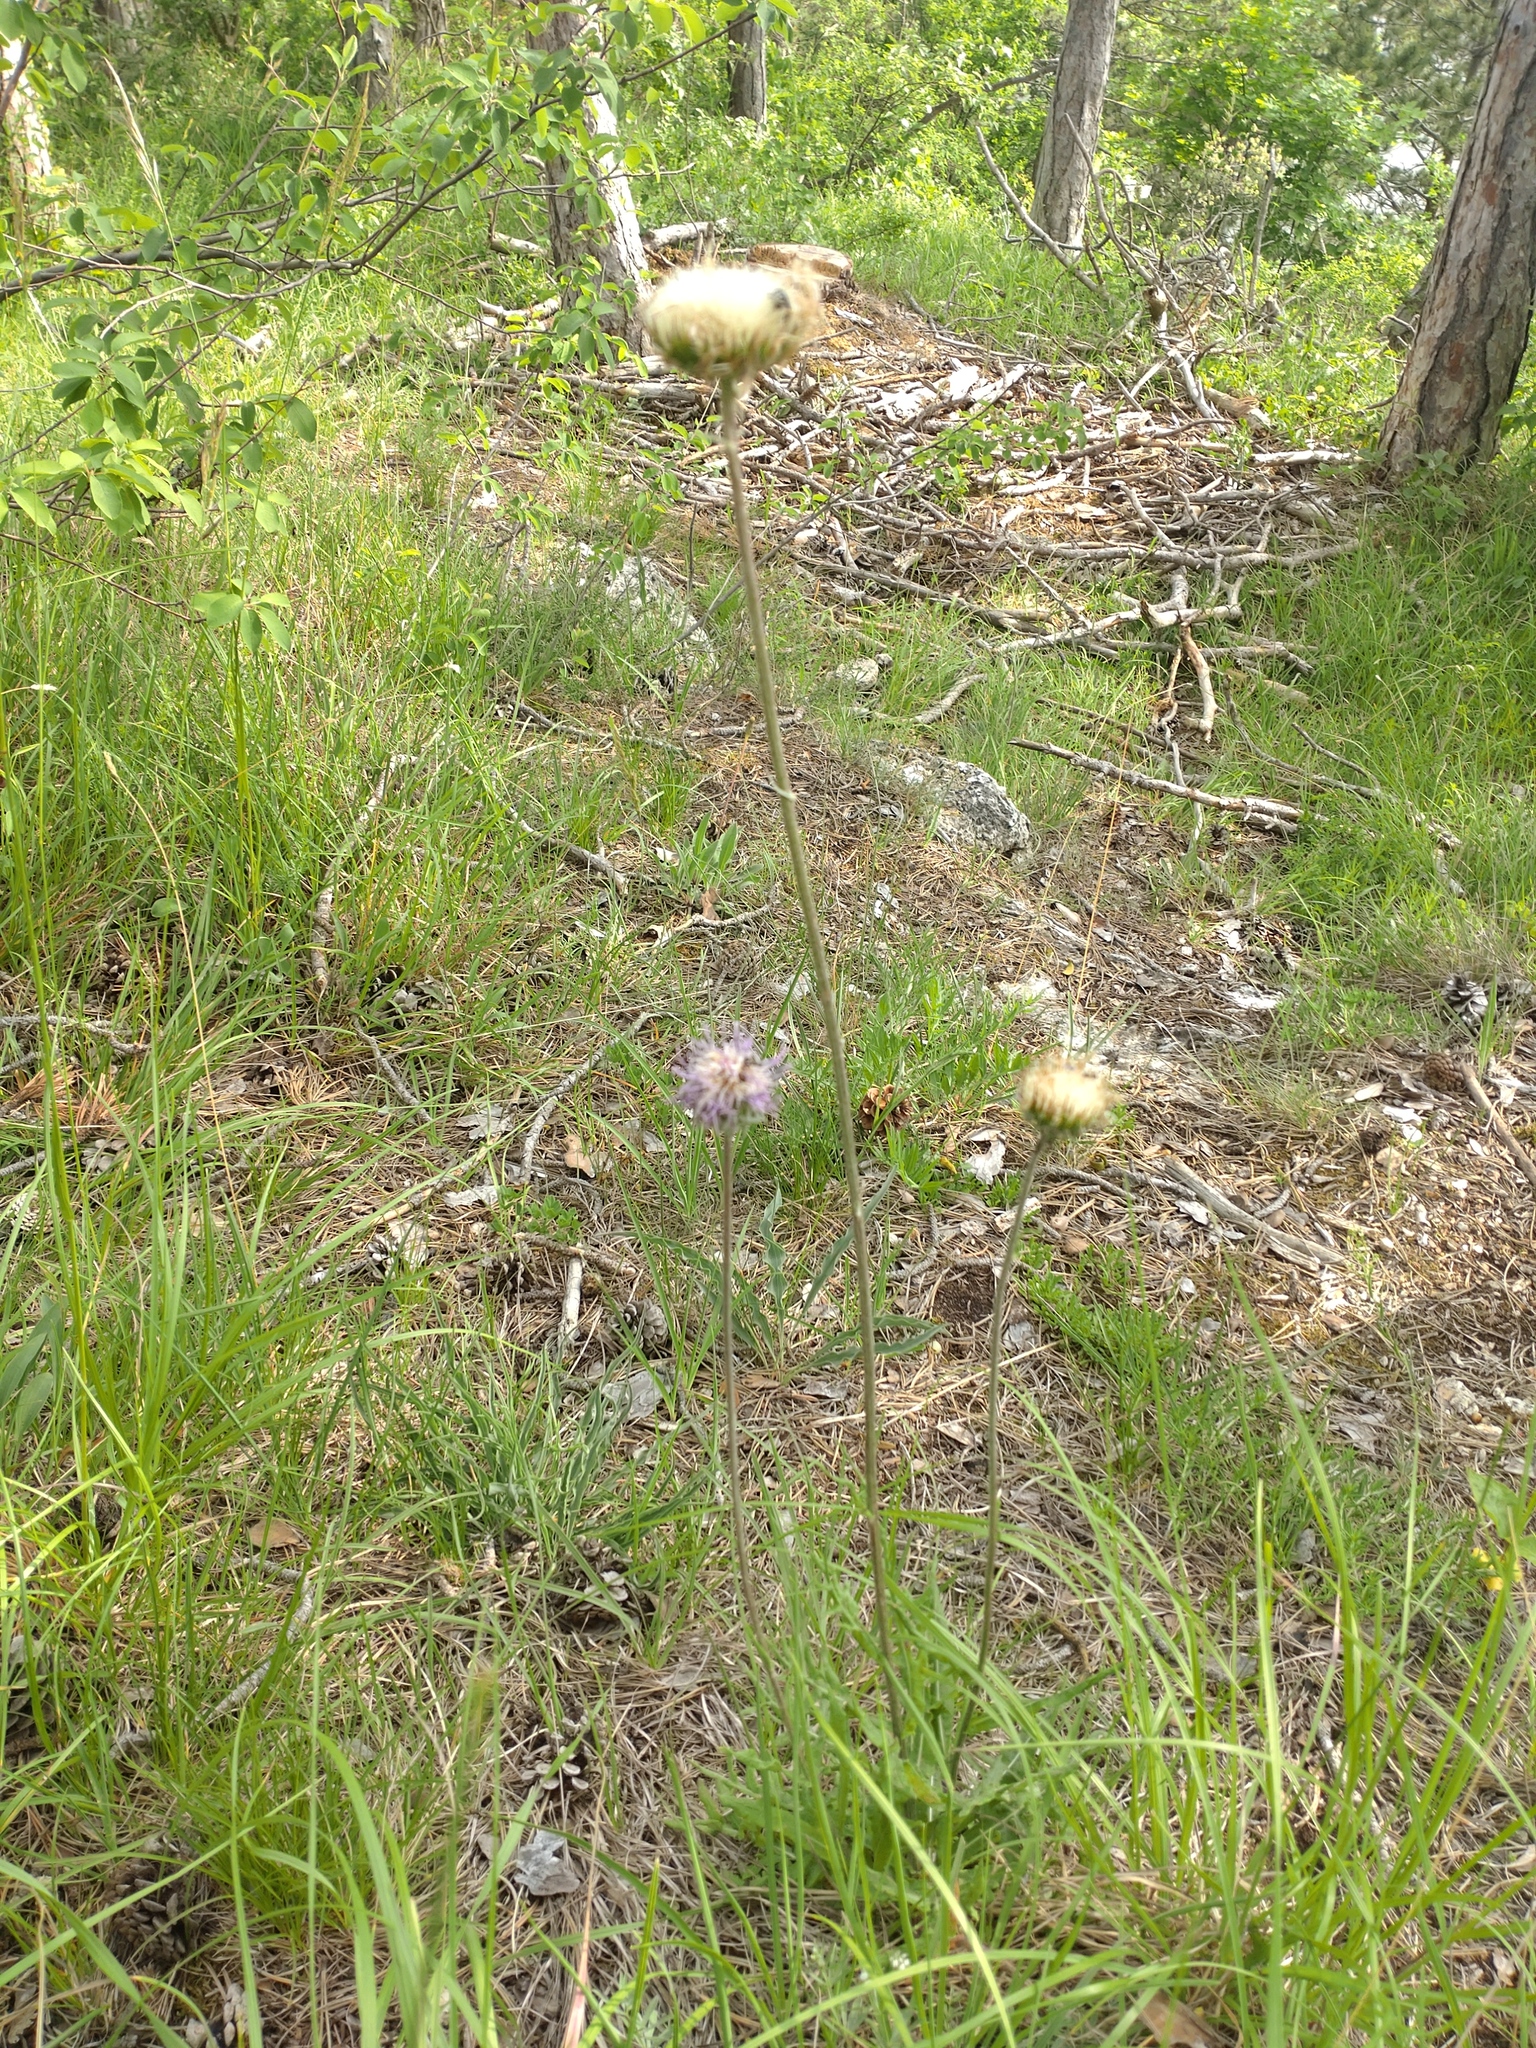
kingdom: Plantae
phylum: Tracheophyta
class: Magnoliopsida
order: Asterales
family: Asteraceae
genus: Jurinea
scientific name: Jurinea mollis
